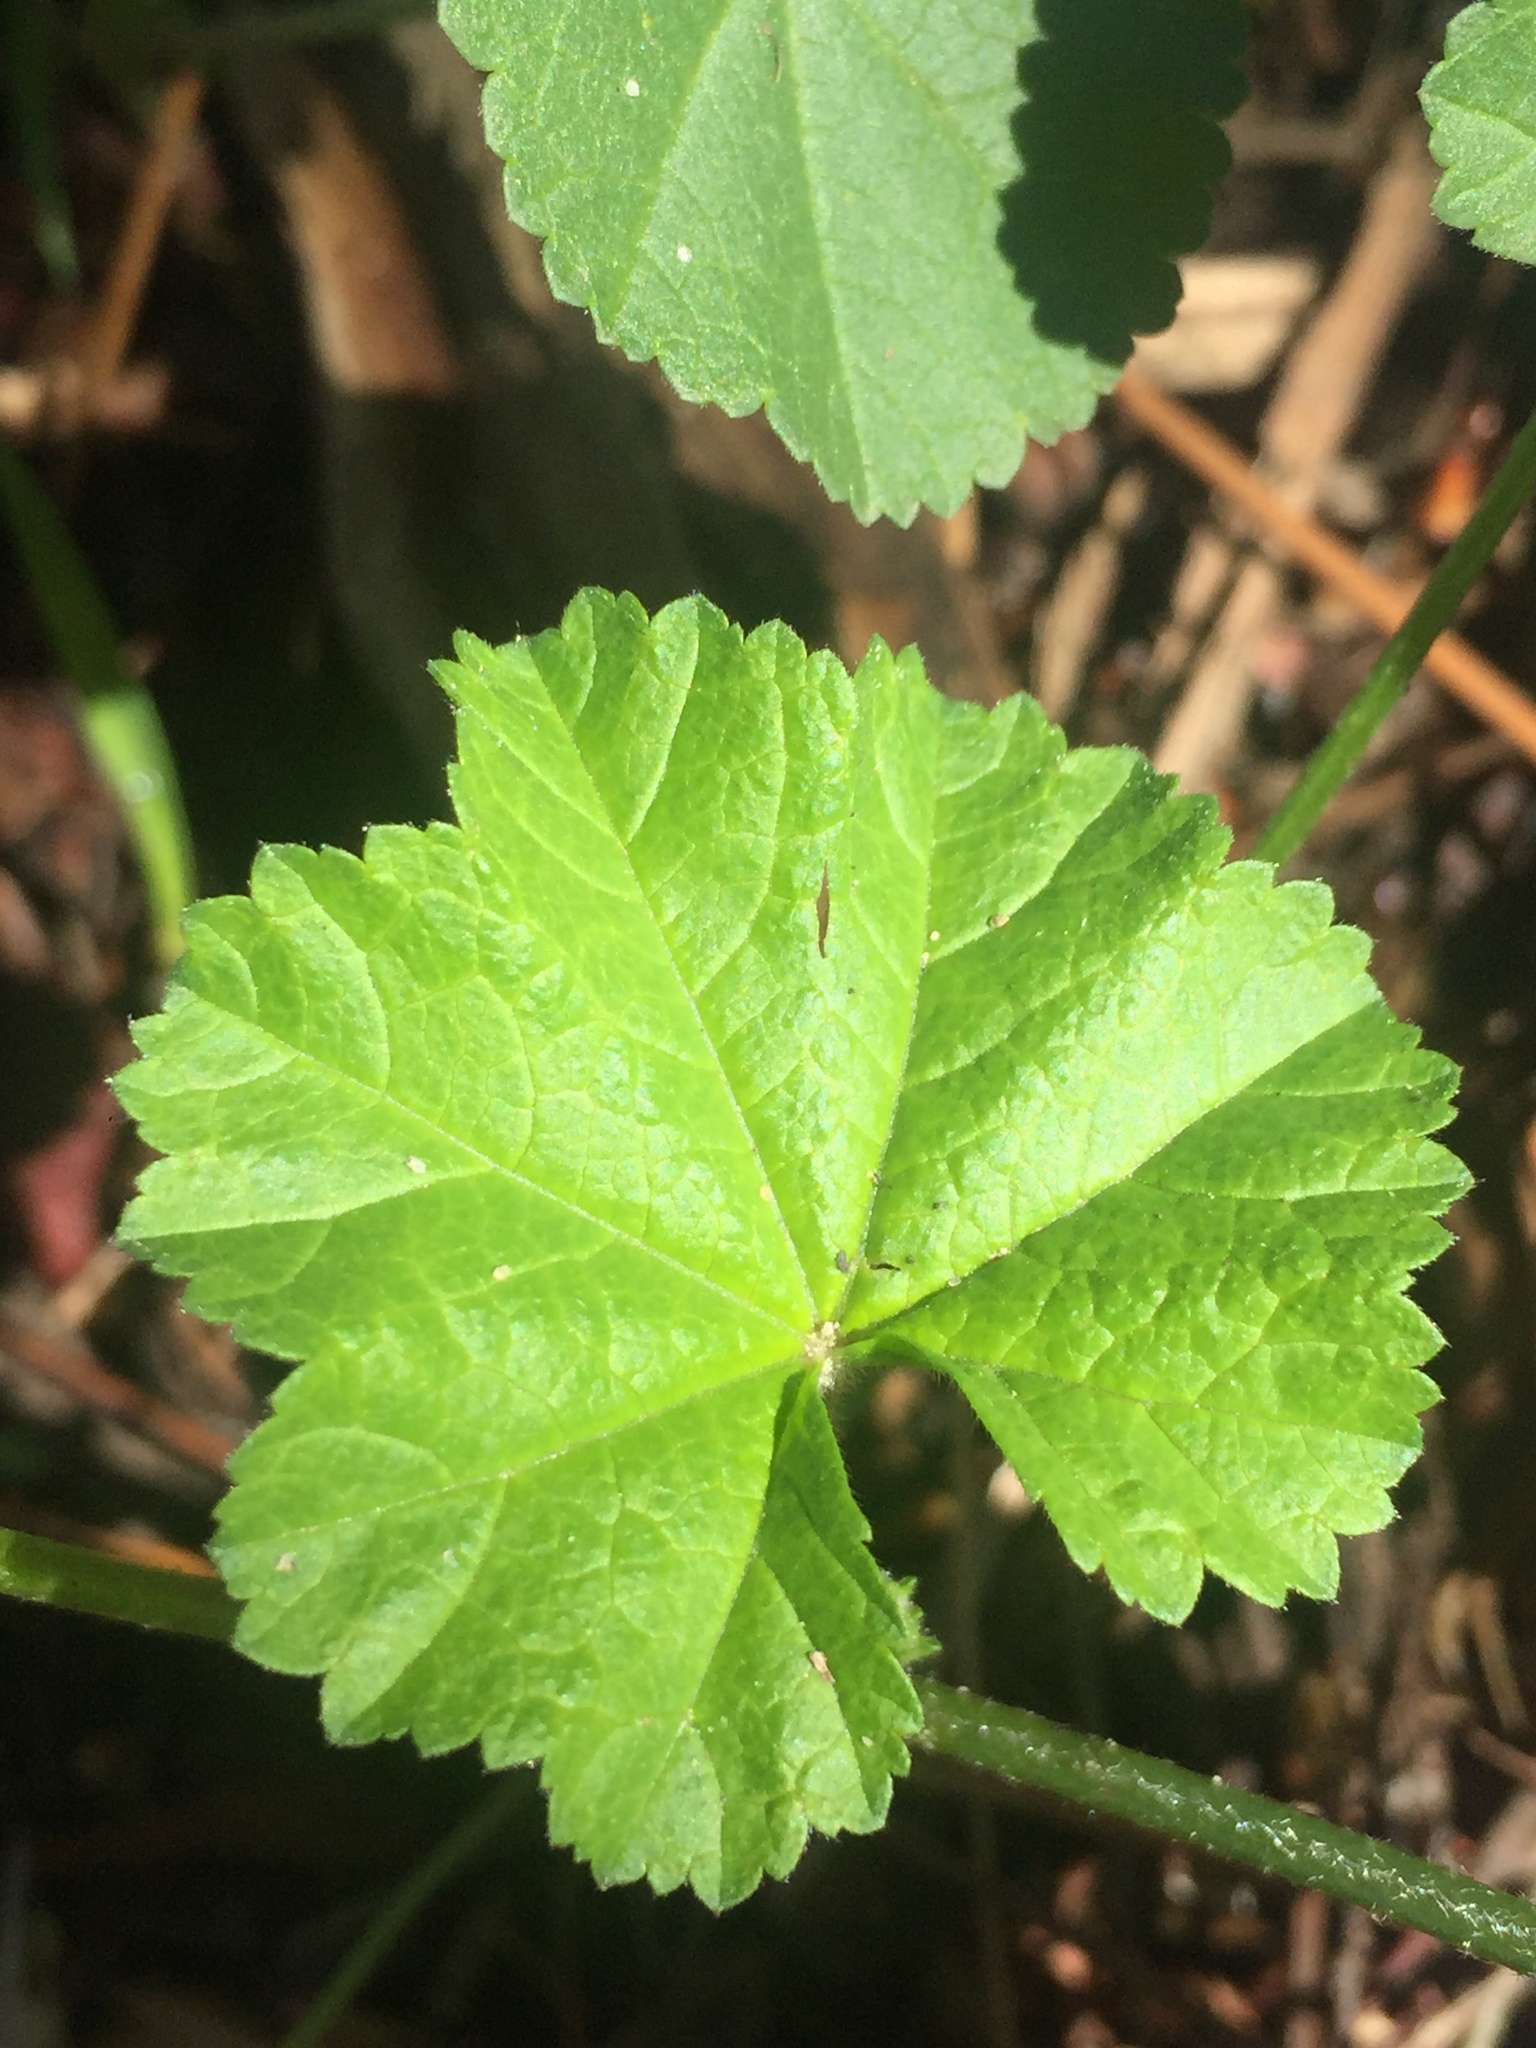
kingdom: Plantae
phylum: Tracheophyta
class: Magnoliopsida
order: Malvales
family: Malvaceae
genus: Malva
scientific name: Malva
